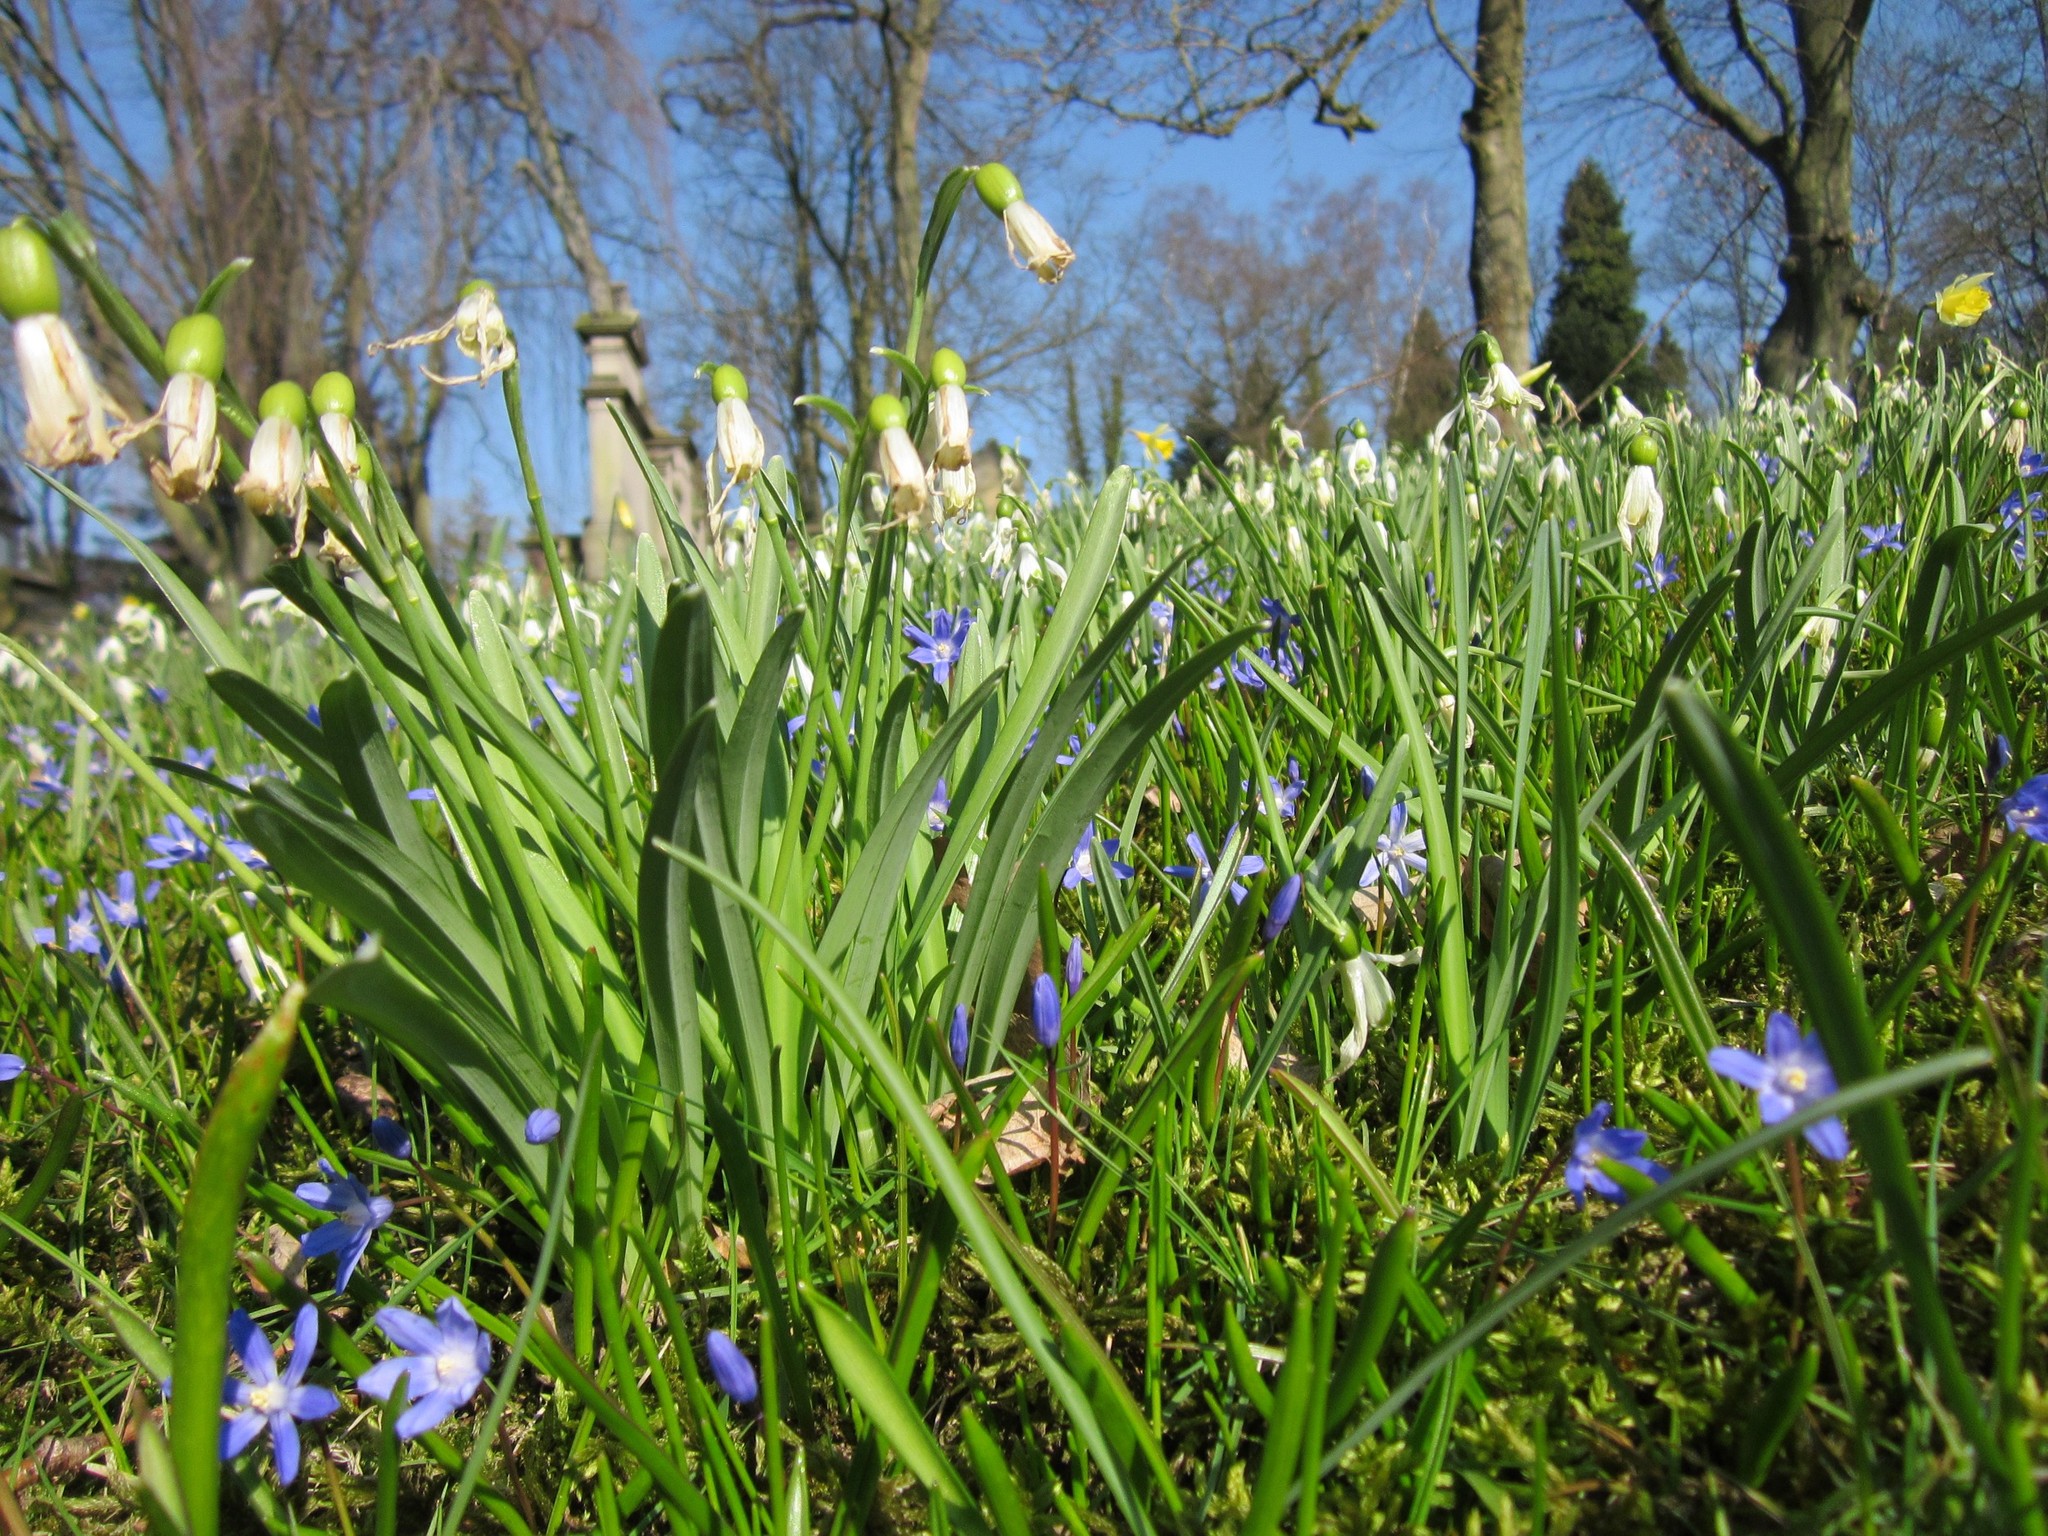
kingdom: Plantae
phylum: Tracheophyta
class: Liliopsida
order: Asparagales
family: Amaryllidaceae
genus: Galanthus
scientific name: Galanthus nivalis
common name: Snowdrop
